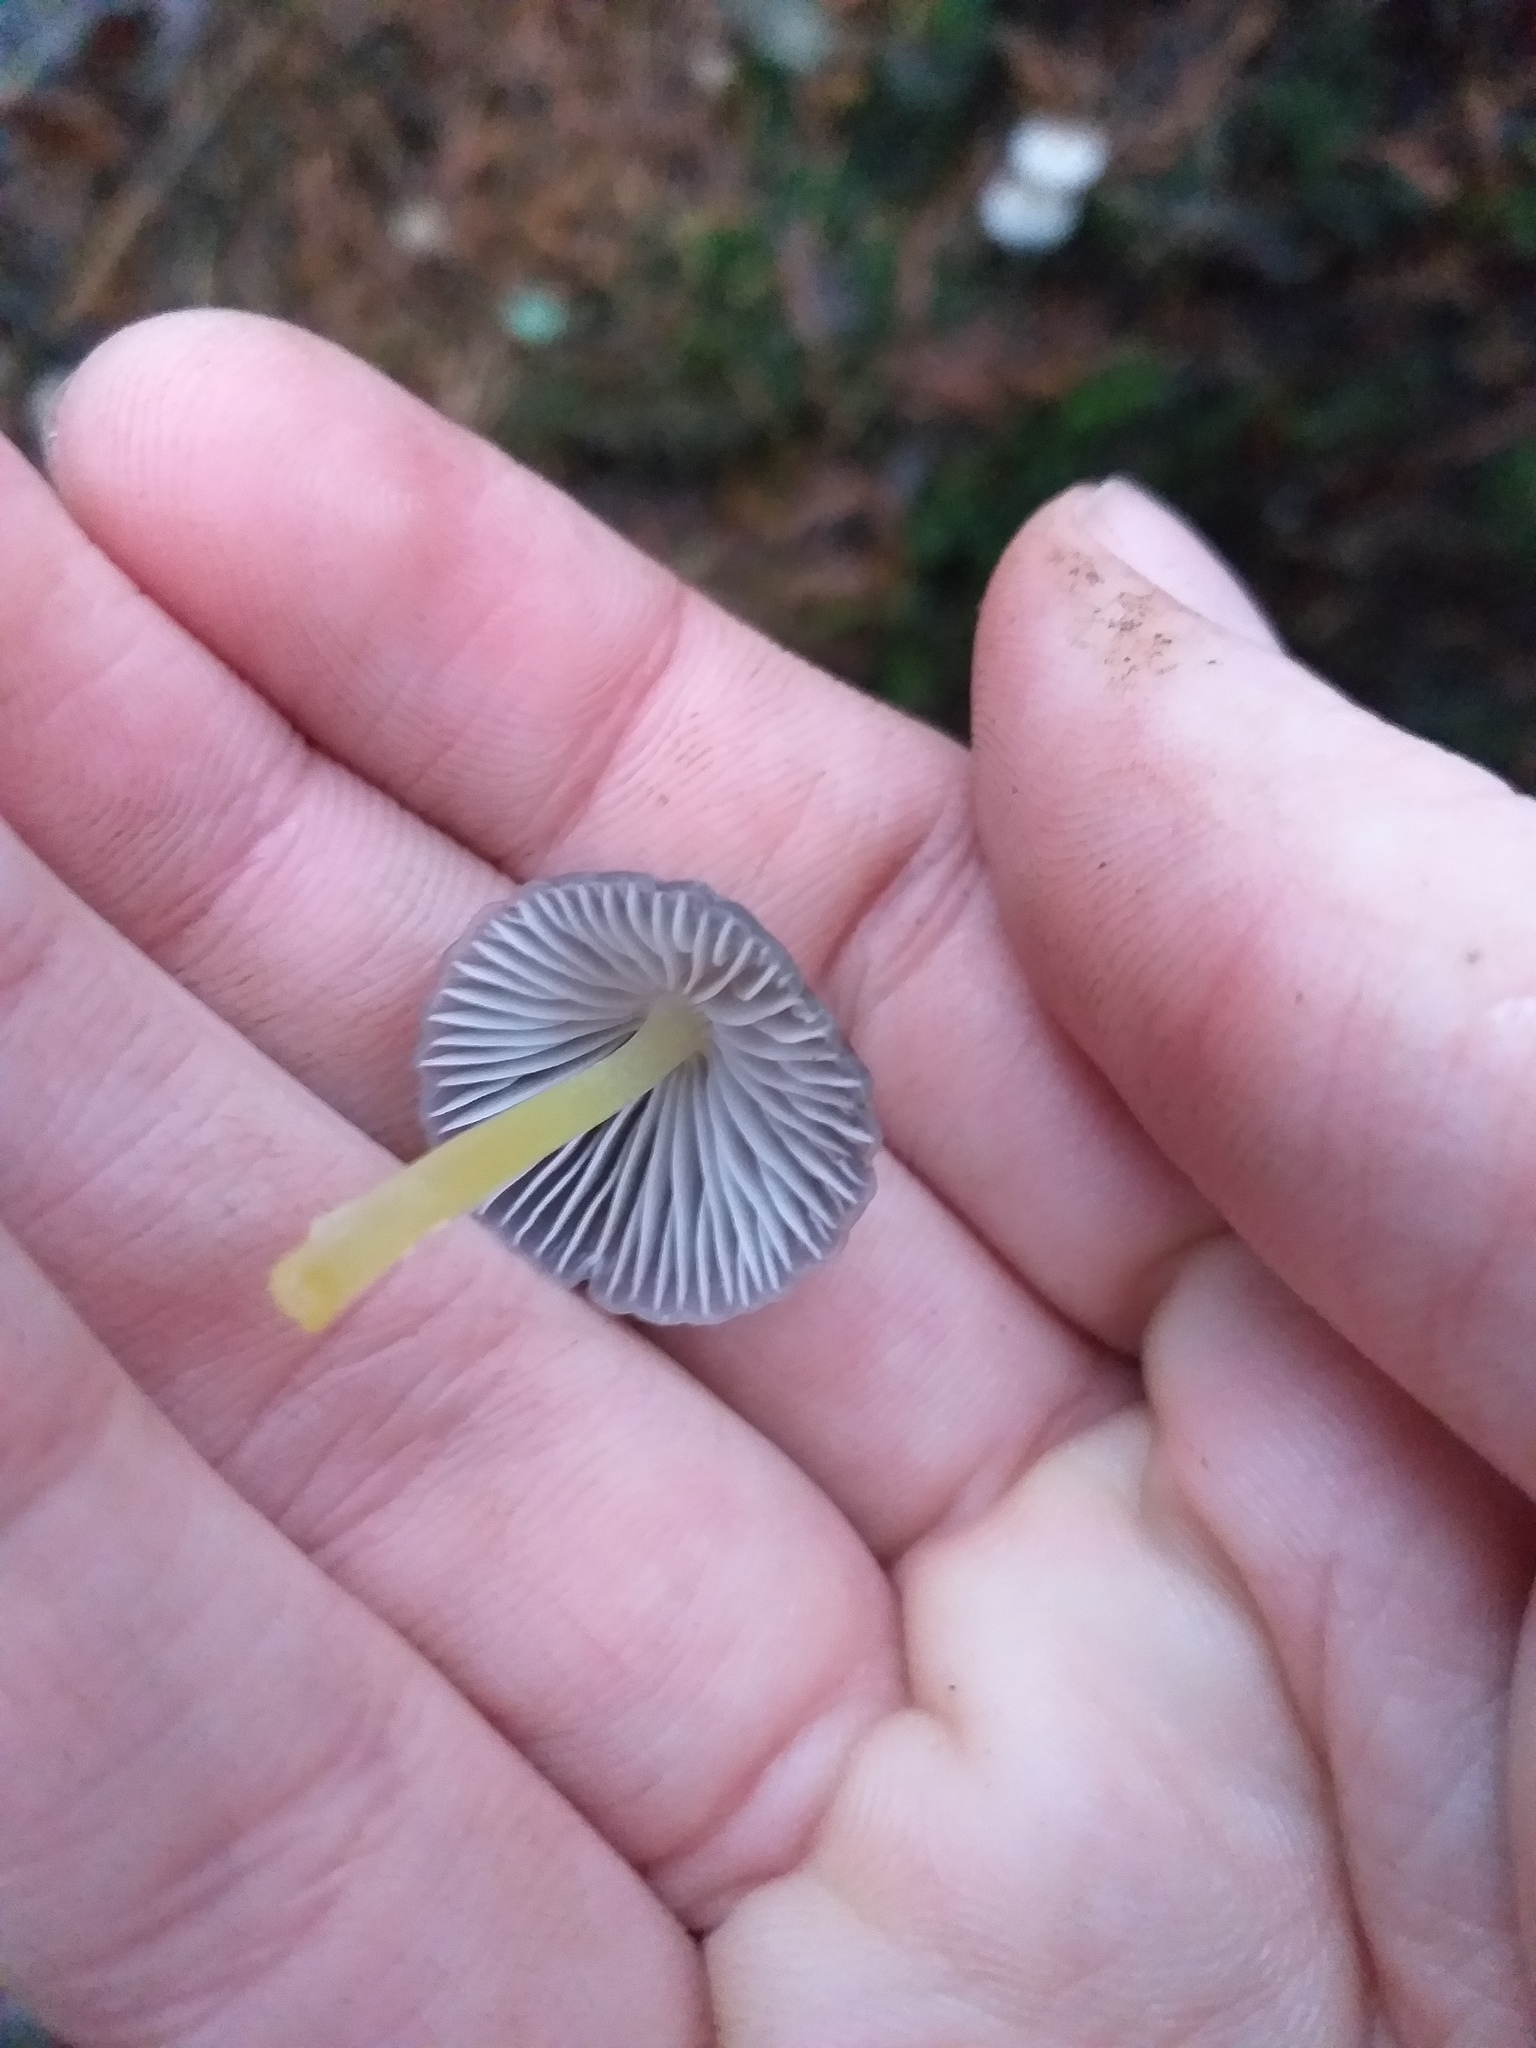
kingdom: Fungi
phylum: Basidiomycota
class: Agaricomycetes
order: Agaricales
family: Mycenaceae
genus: Mycena
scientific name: Mycena epipterygia
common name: Yellowleg bonnet
